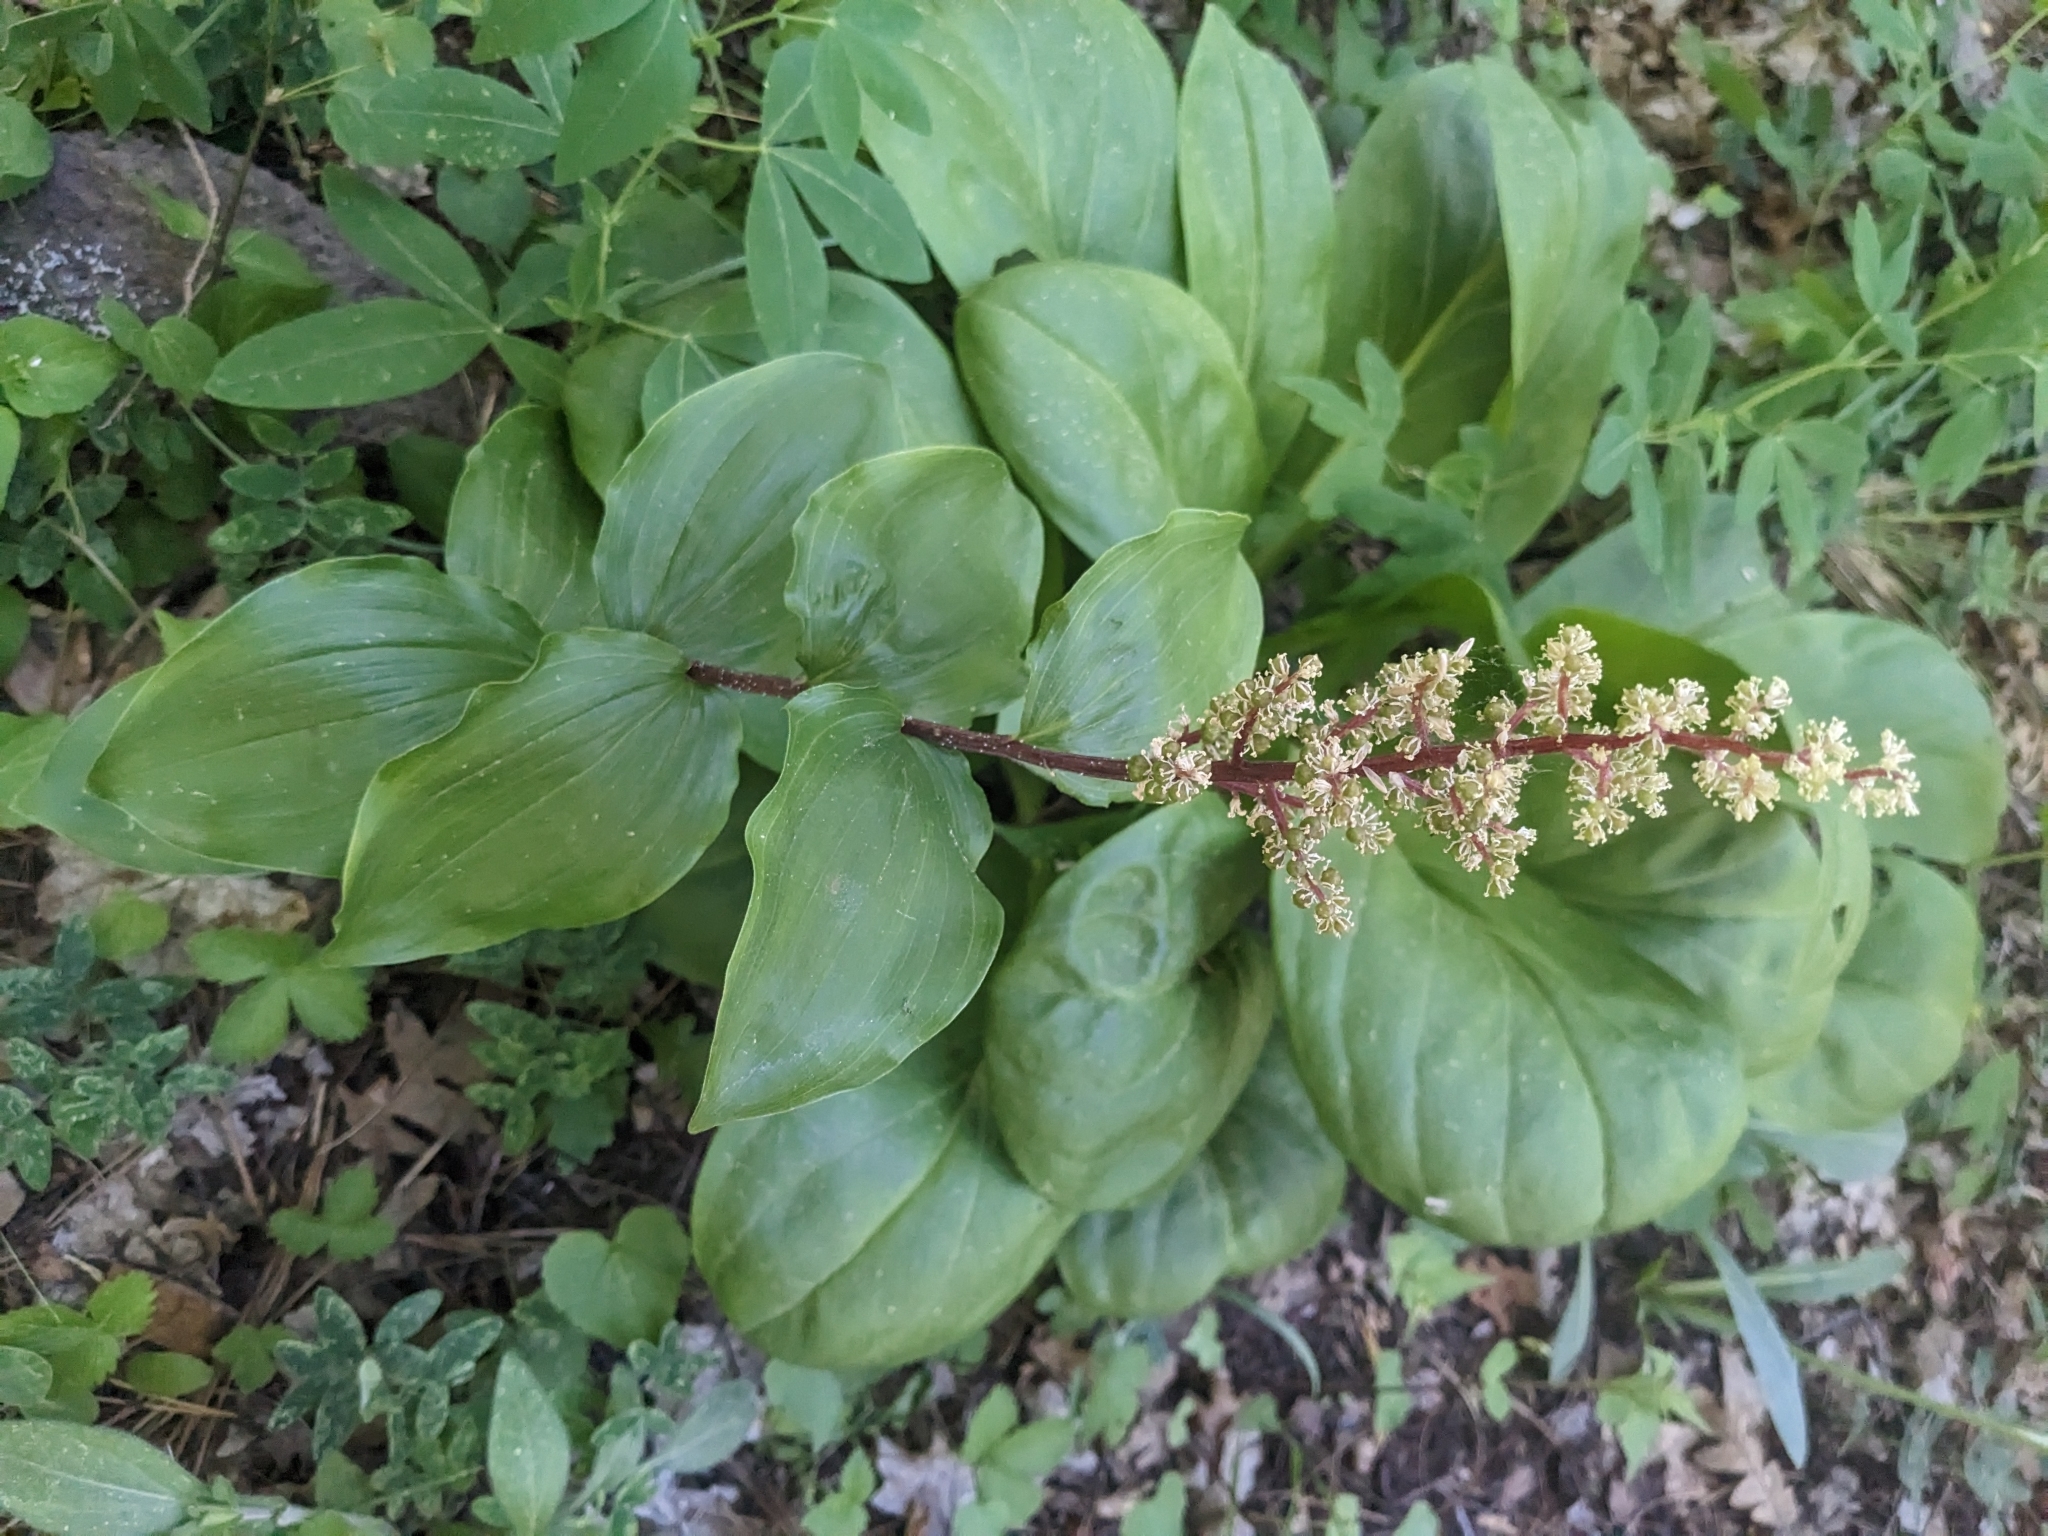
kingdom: Plantae
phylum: Tracheophyta
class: Liliopsida
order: Asparagales
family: Asparagaceae
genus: Maianthemum
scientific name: Maianthemum racemosum
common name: False spikenard
